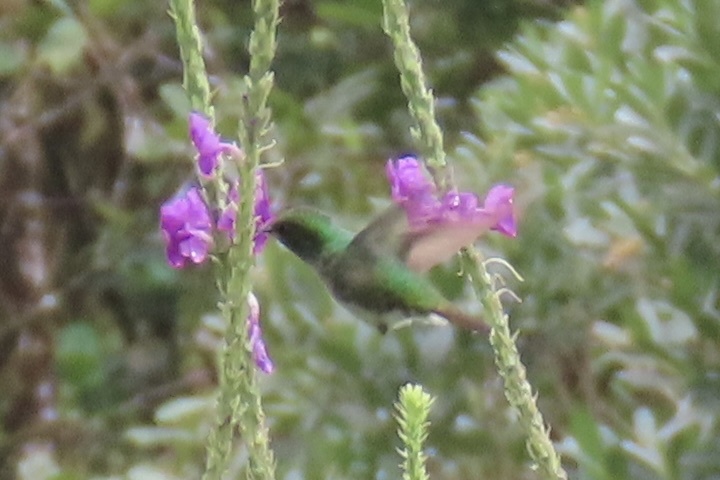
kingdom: Animalia
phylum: Chordata
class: Aves
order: Apodiformes
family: Trochilidae
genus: Microchera
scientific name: Microchera cupreiceps
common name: Coppery-headed emerald
